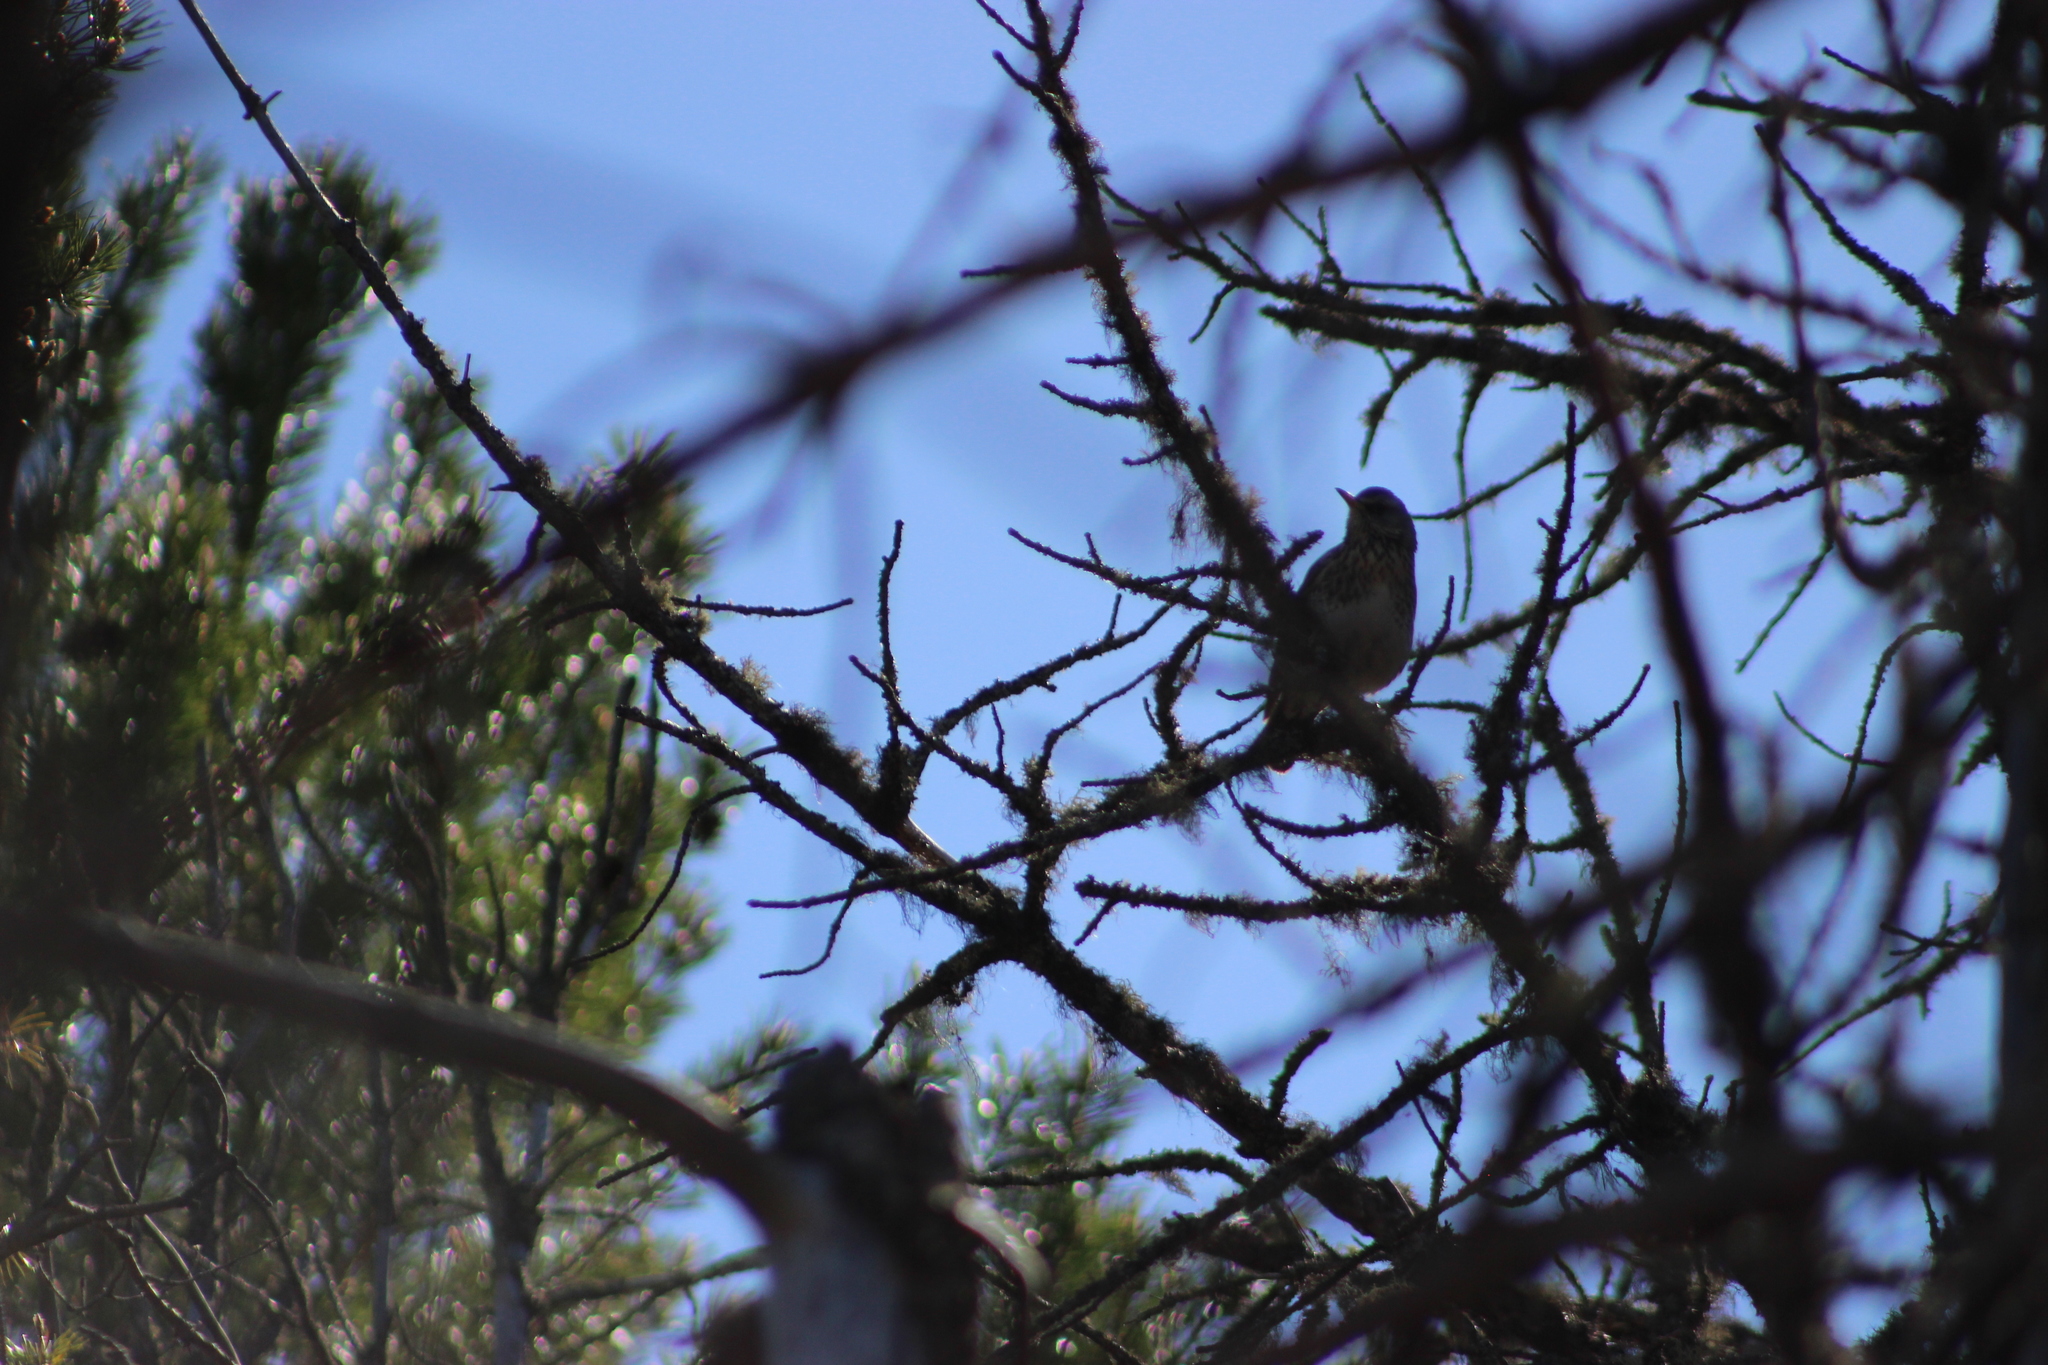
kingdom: Animalia
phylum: Chordata
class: Aves
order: Passeriformes
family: Turdidae
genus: Turdus
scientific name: Turdus iliacus
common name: Redwing
